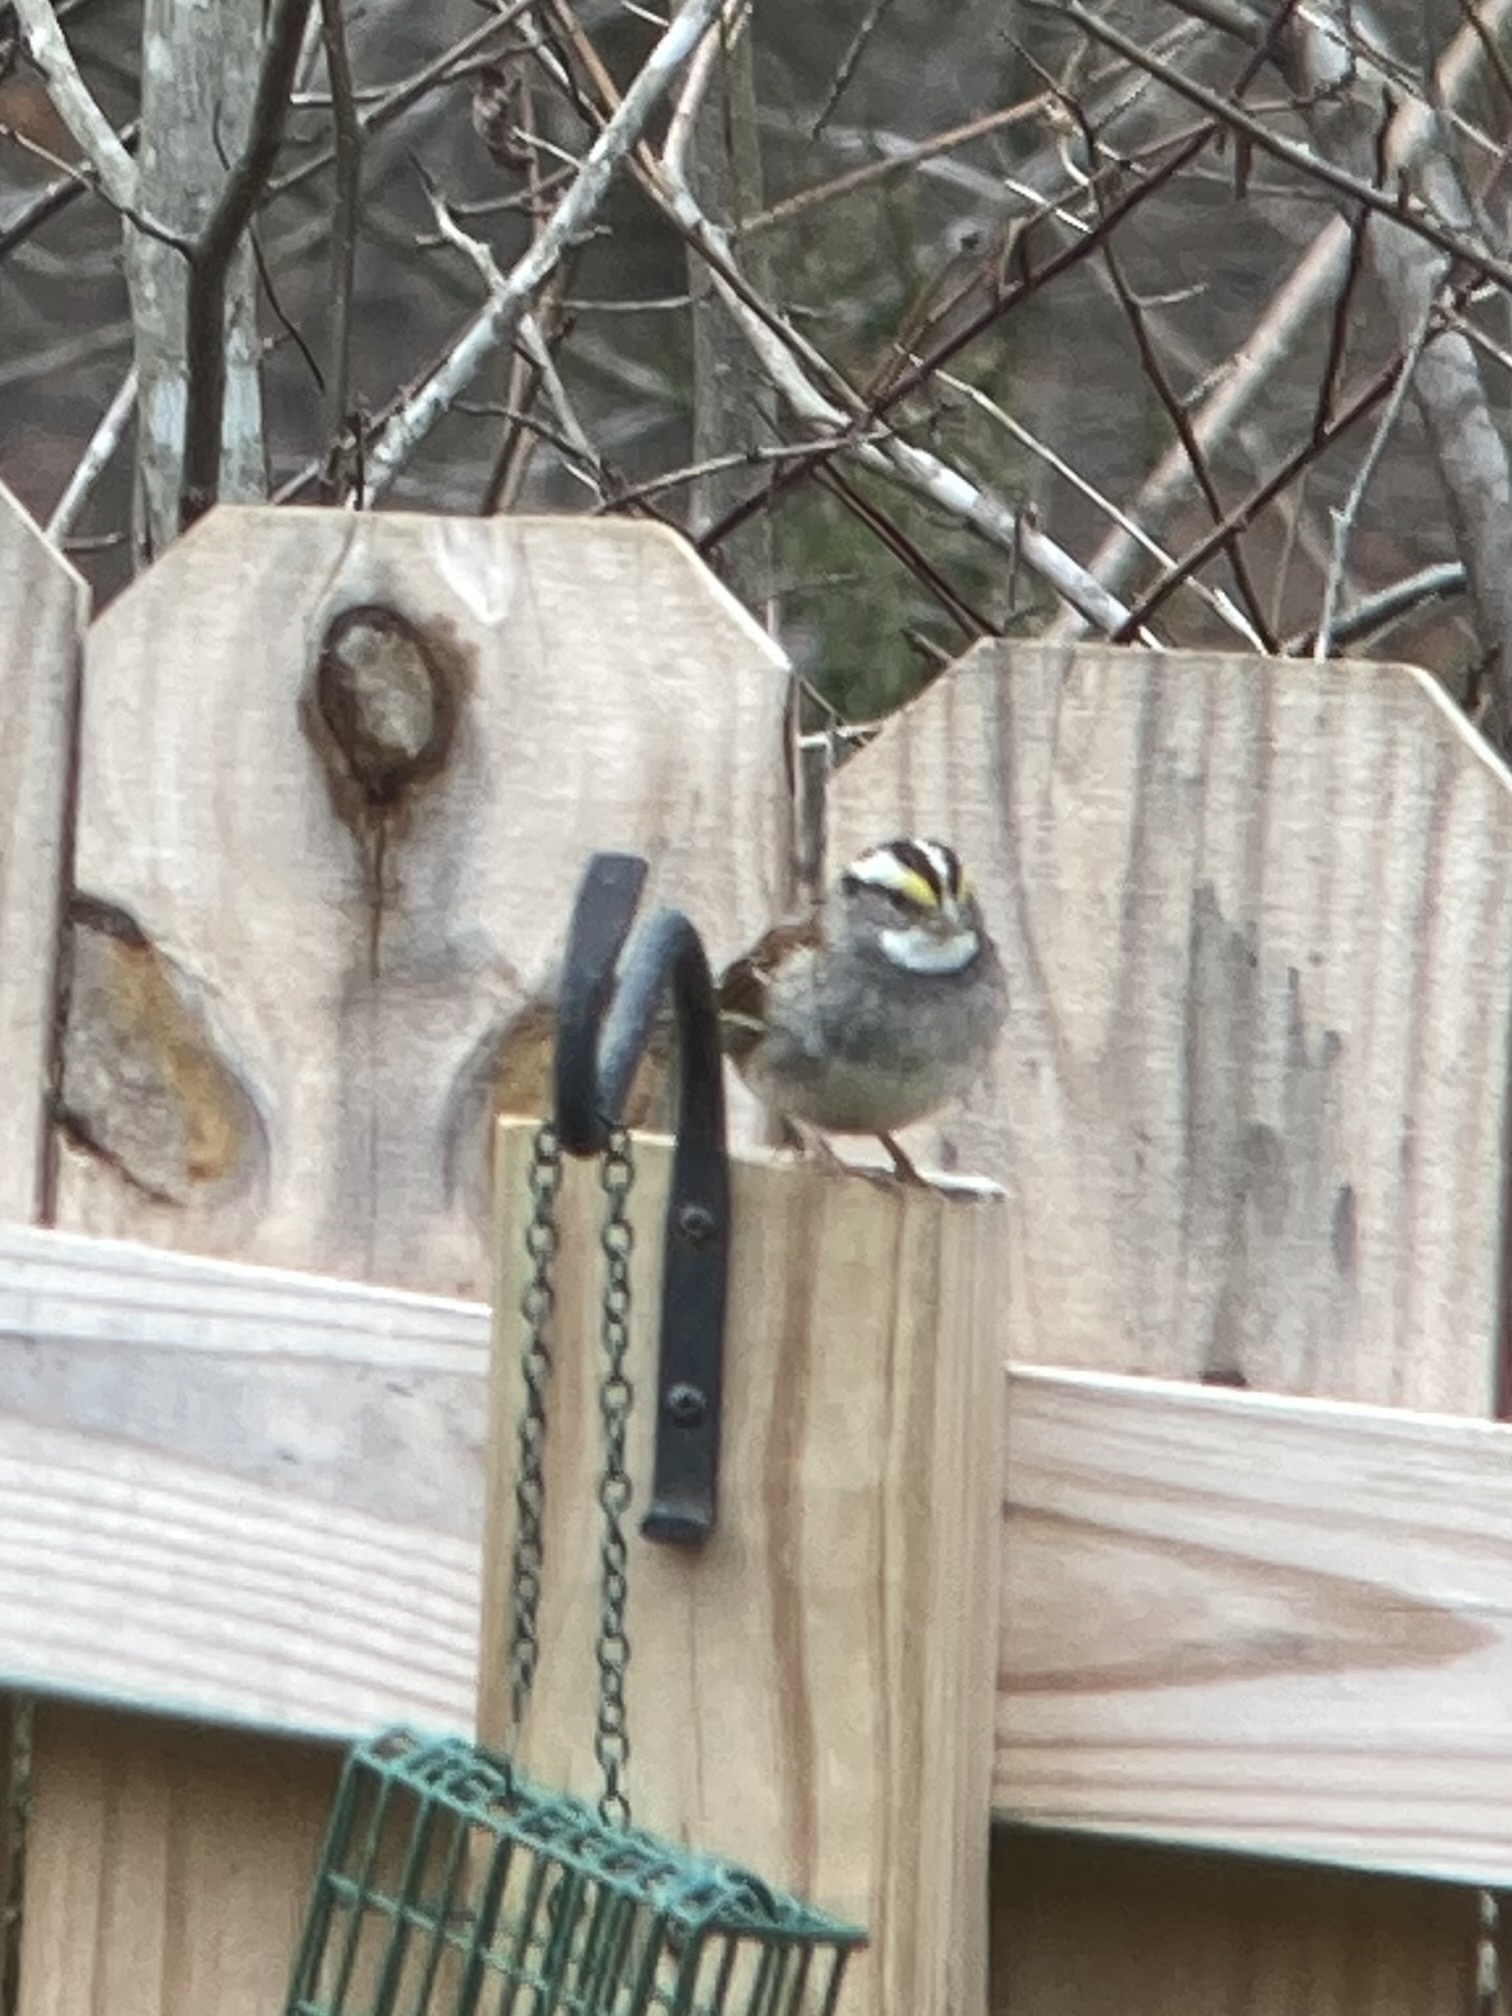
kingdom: Animalia
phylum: Chordata
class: Aves
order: Passeriformes
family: Passerellidae
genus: Zonotrichia
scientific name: Zonotrichia albicollis
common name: White-throated sparrow
